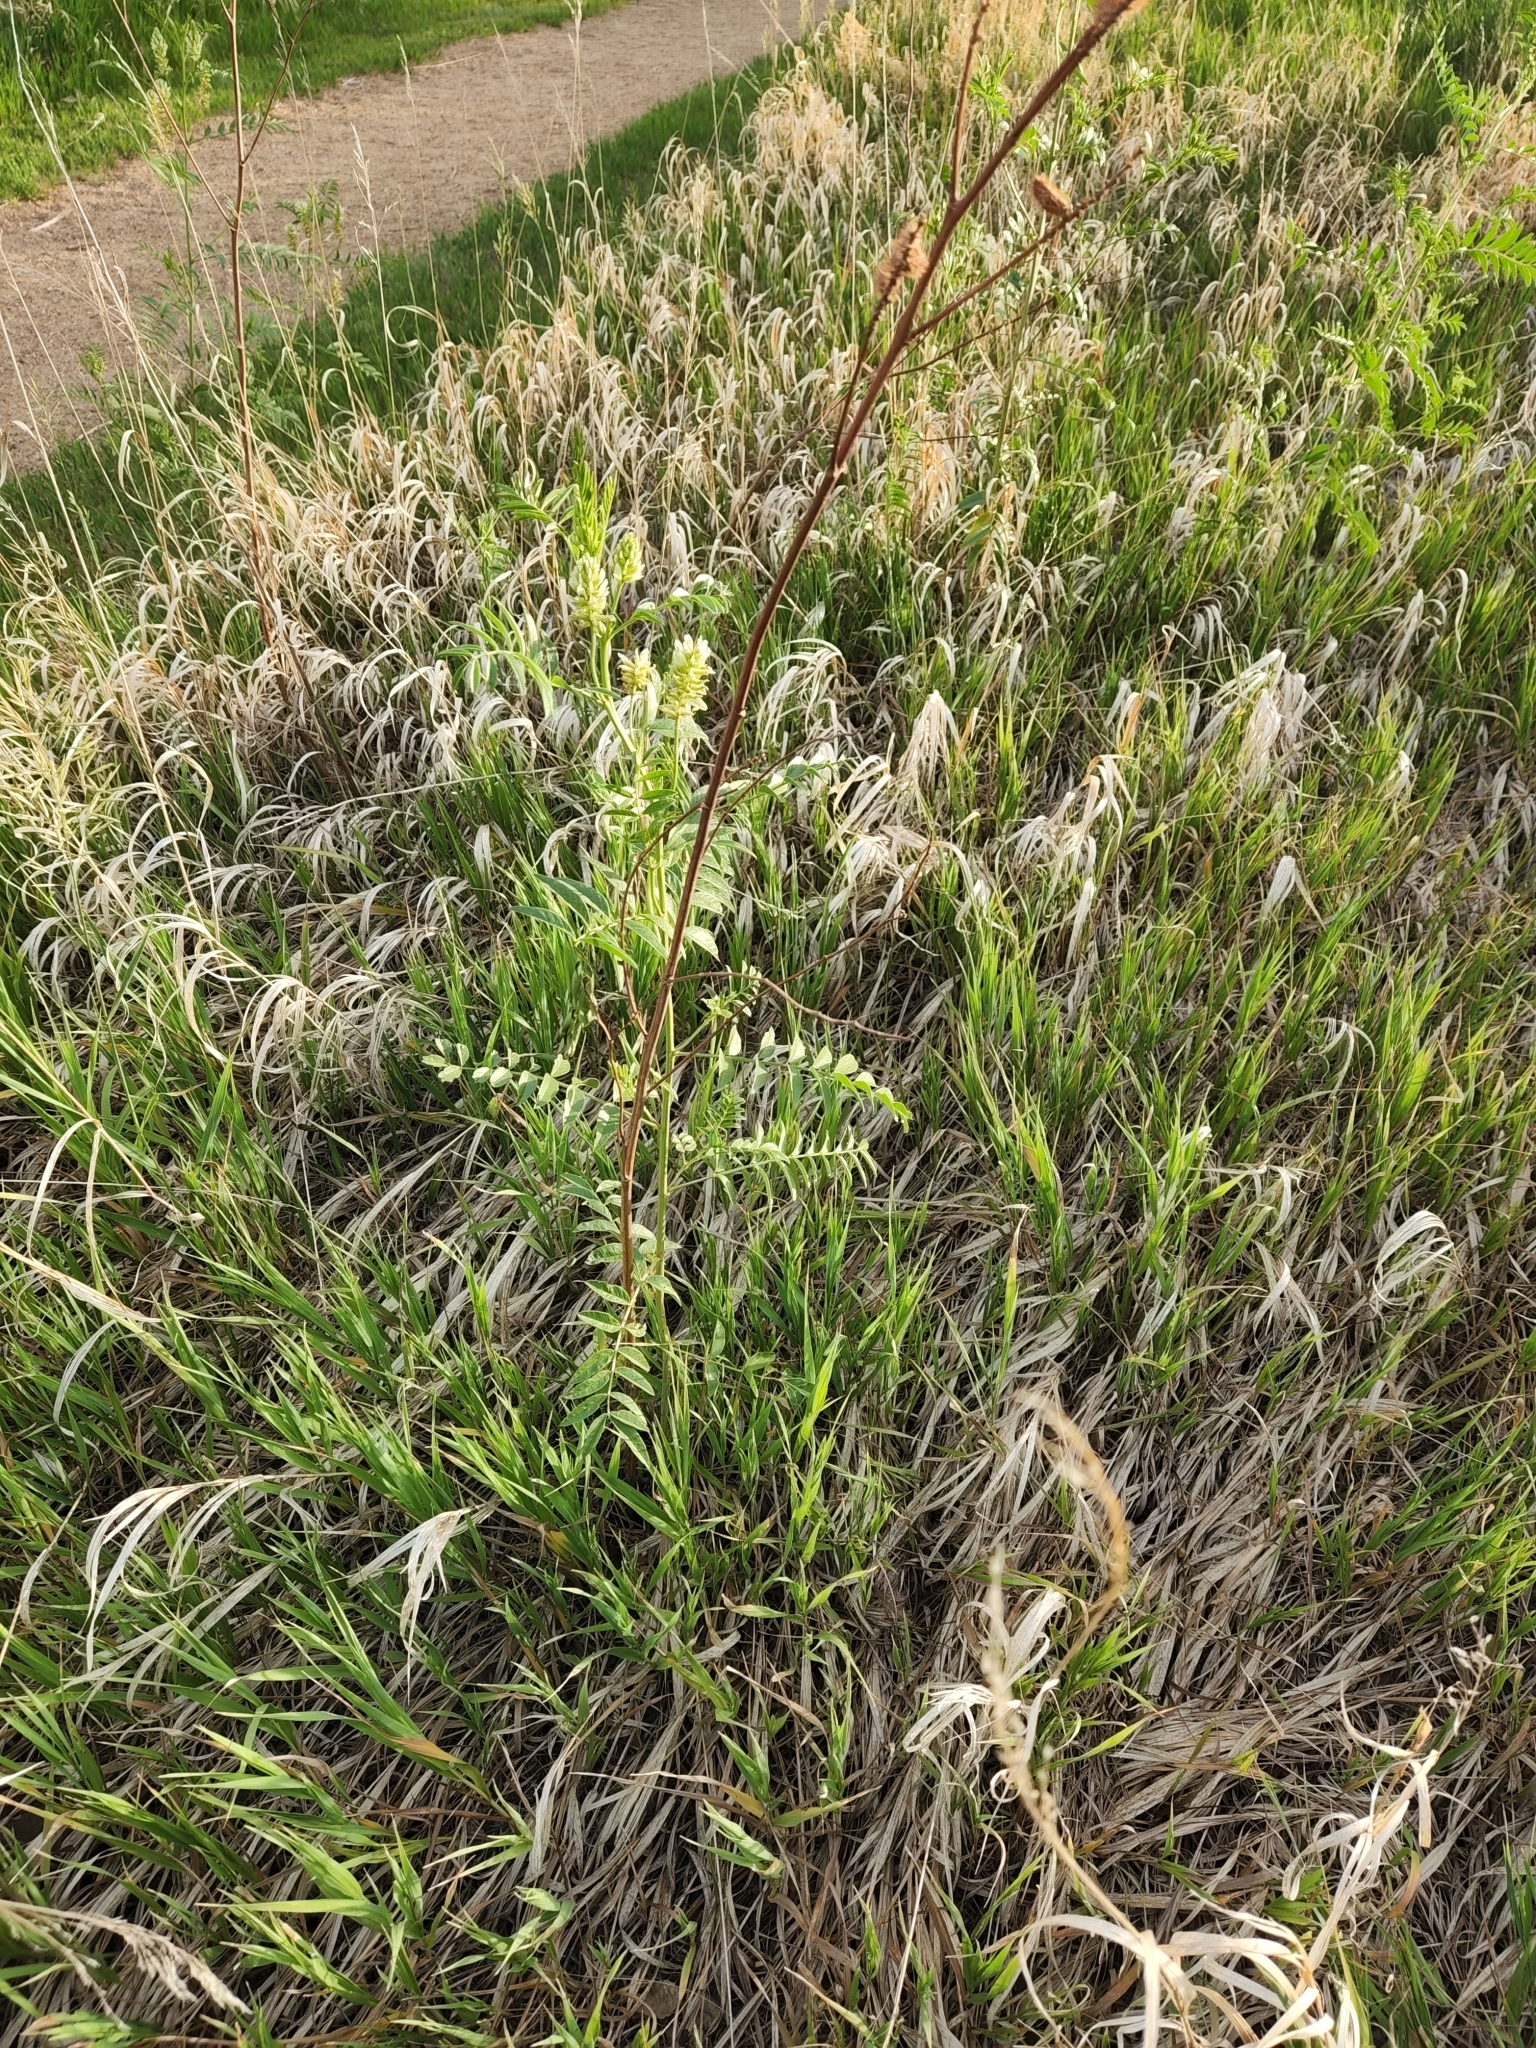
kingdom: Plantae
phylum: Tracheophyta
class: Magnoliopsida
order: Fabales
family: Fabaceae
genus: Glycyrrhiza
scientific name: Glycyrrhiza lepidota
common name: American liquorice
